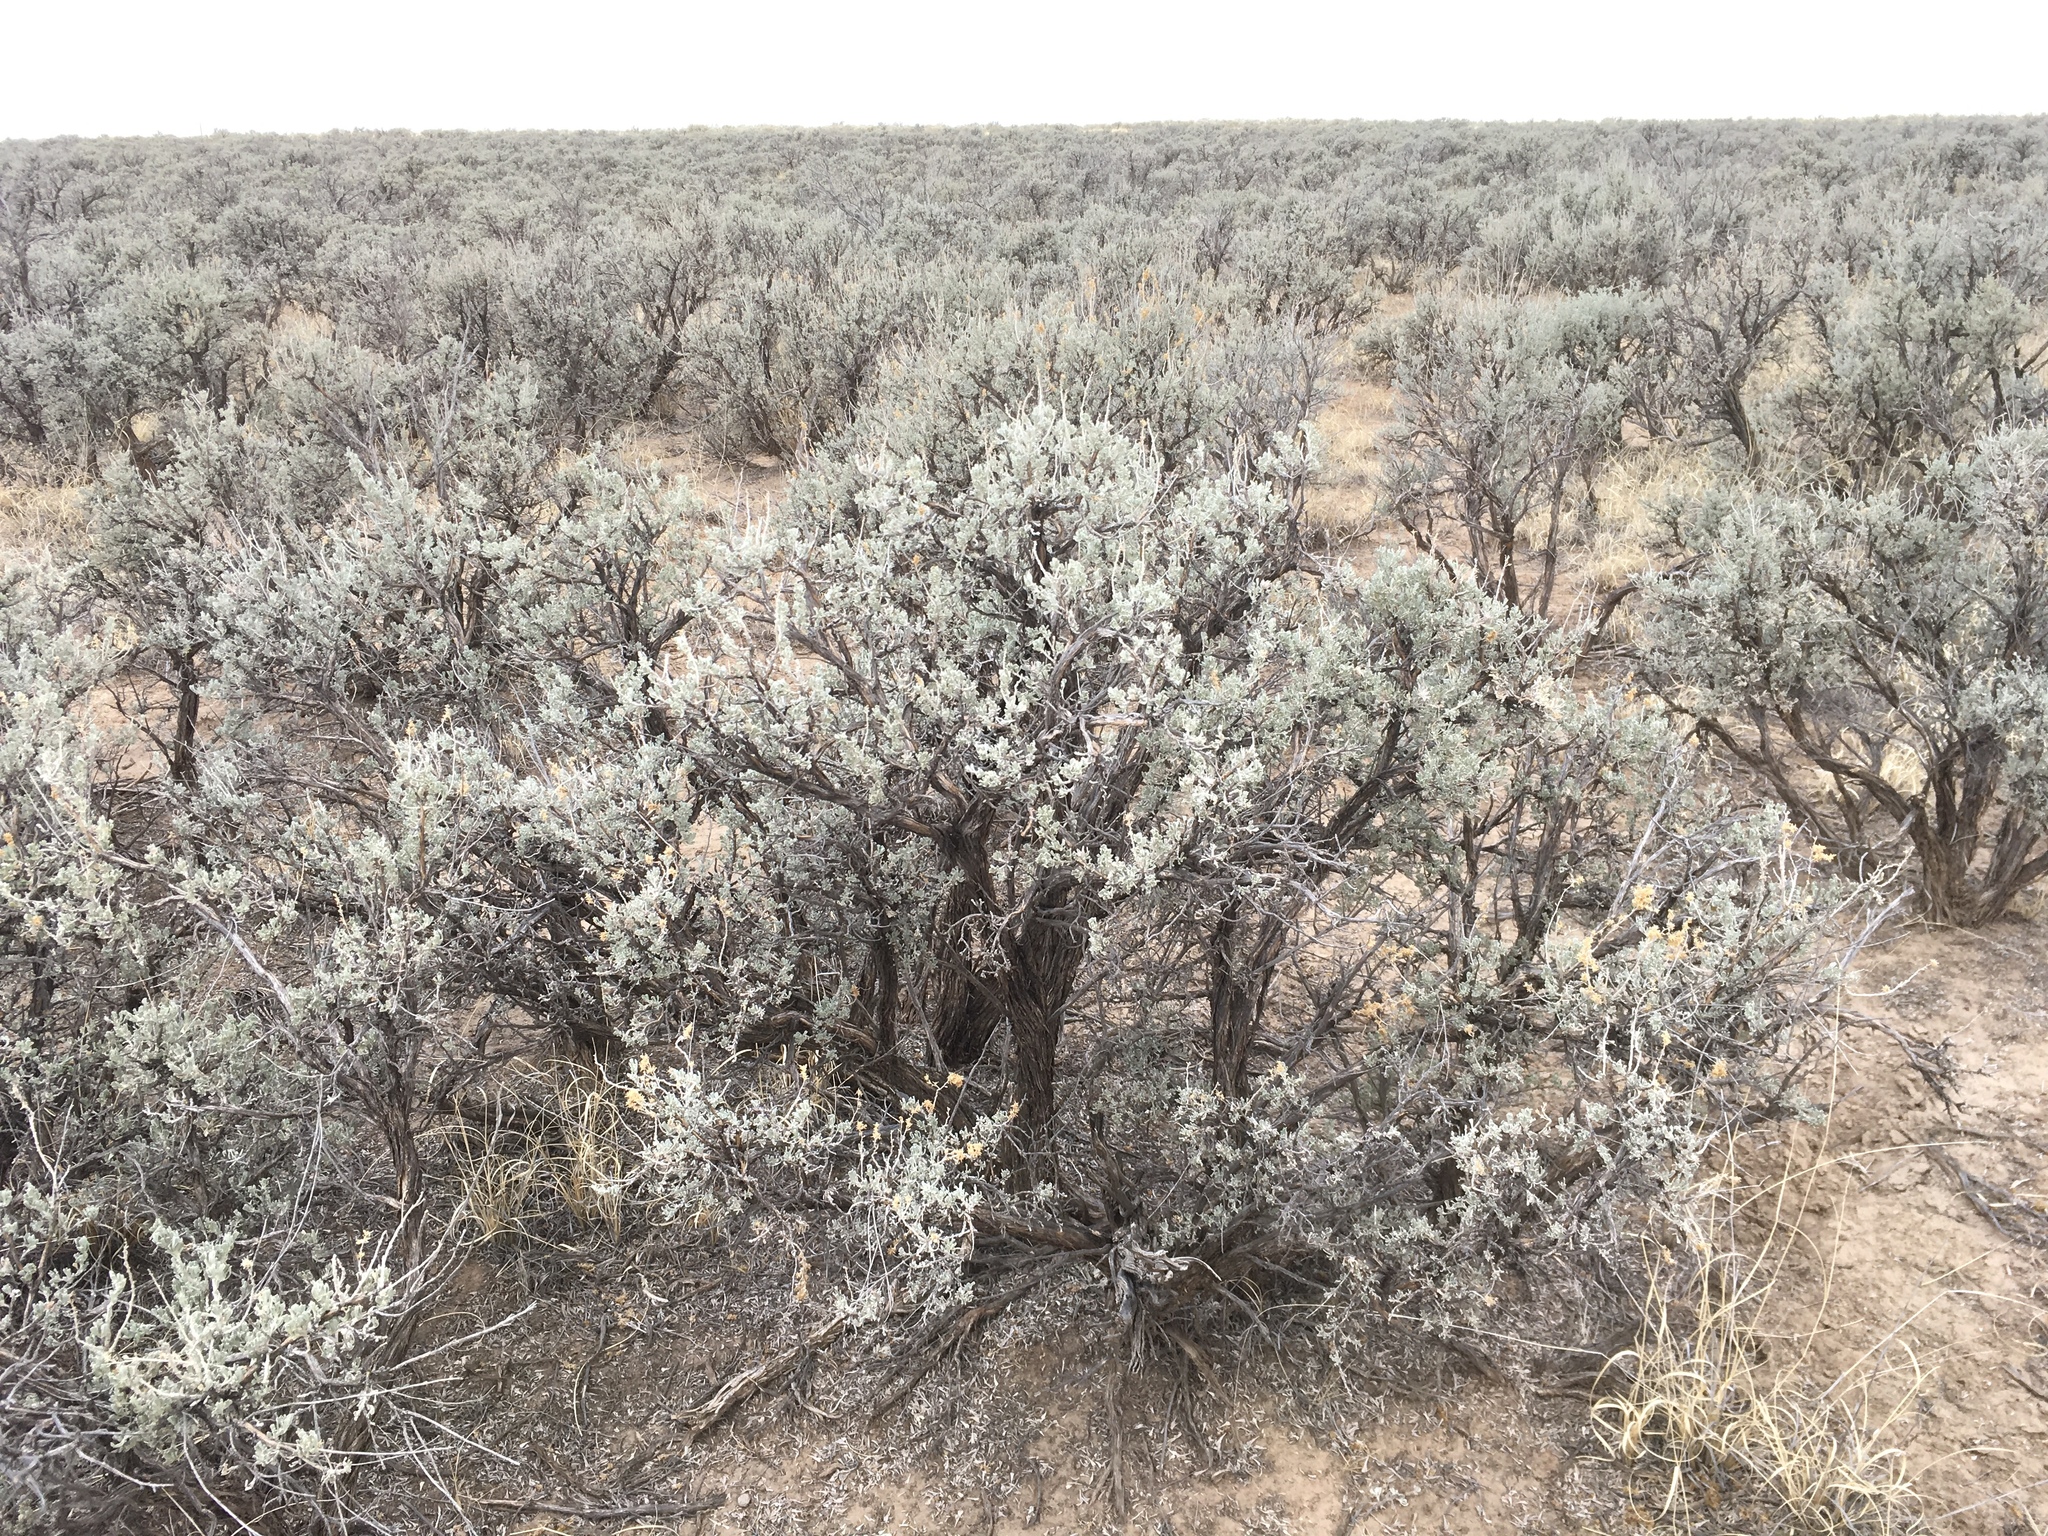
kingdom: Plantae
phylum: Tracheophyta
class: Magnoliopsida
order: Asterales
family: Asteraceae
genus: Artemisia
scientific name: Artemisia tridentata
